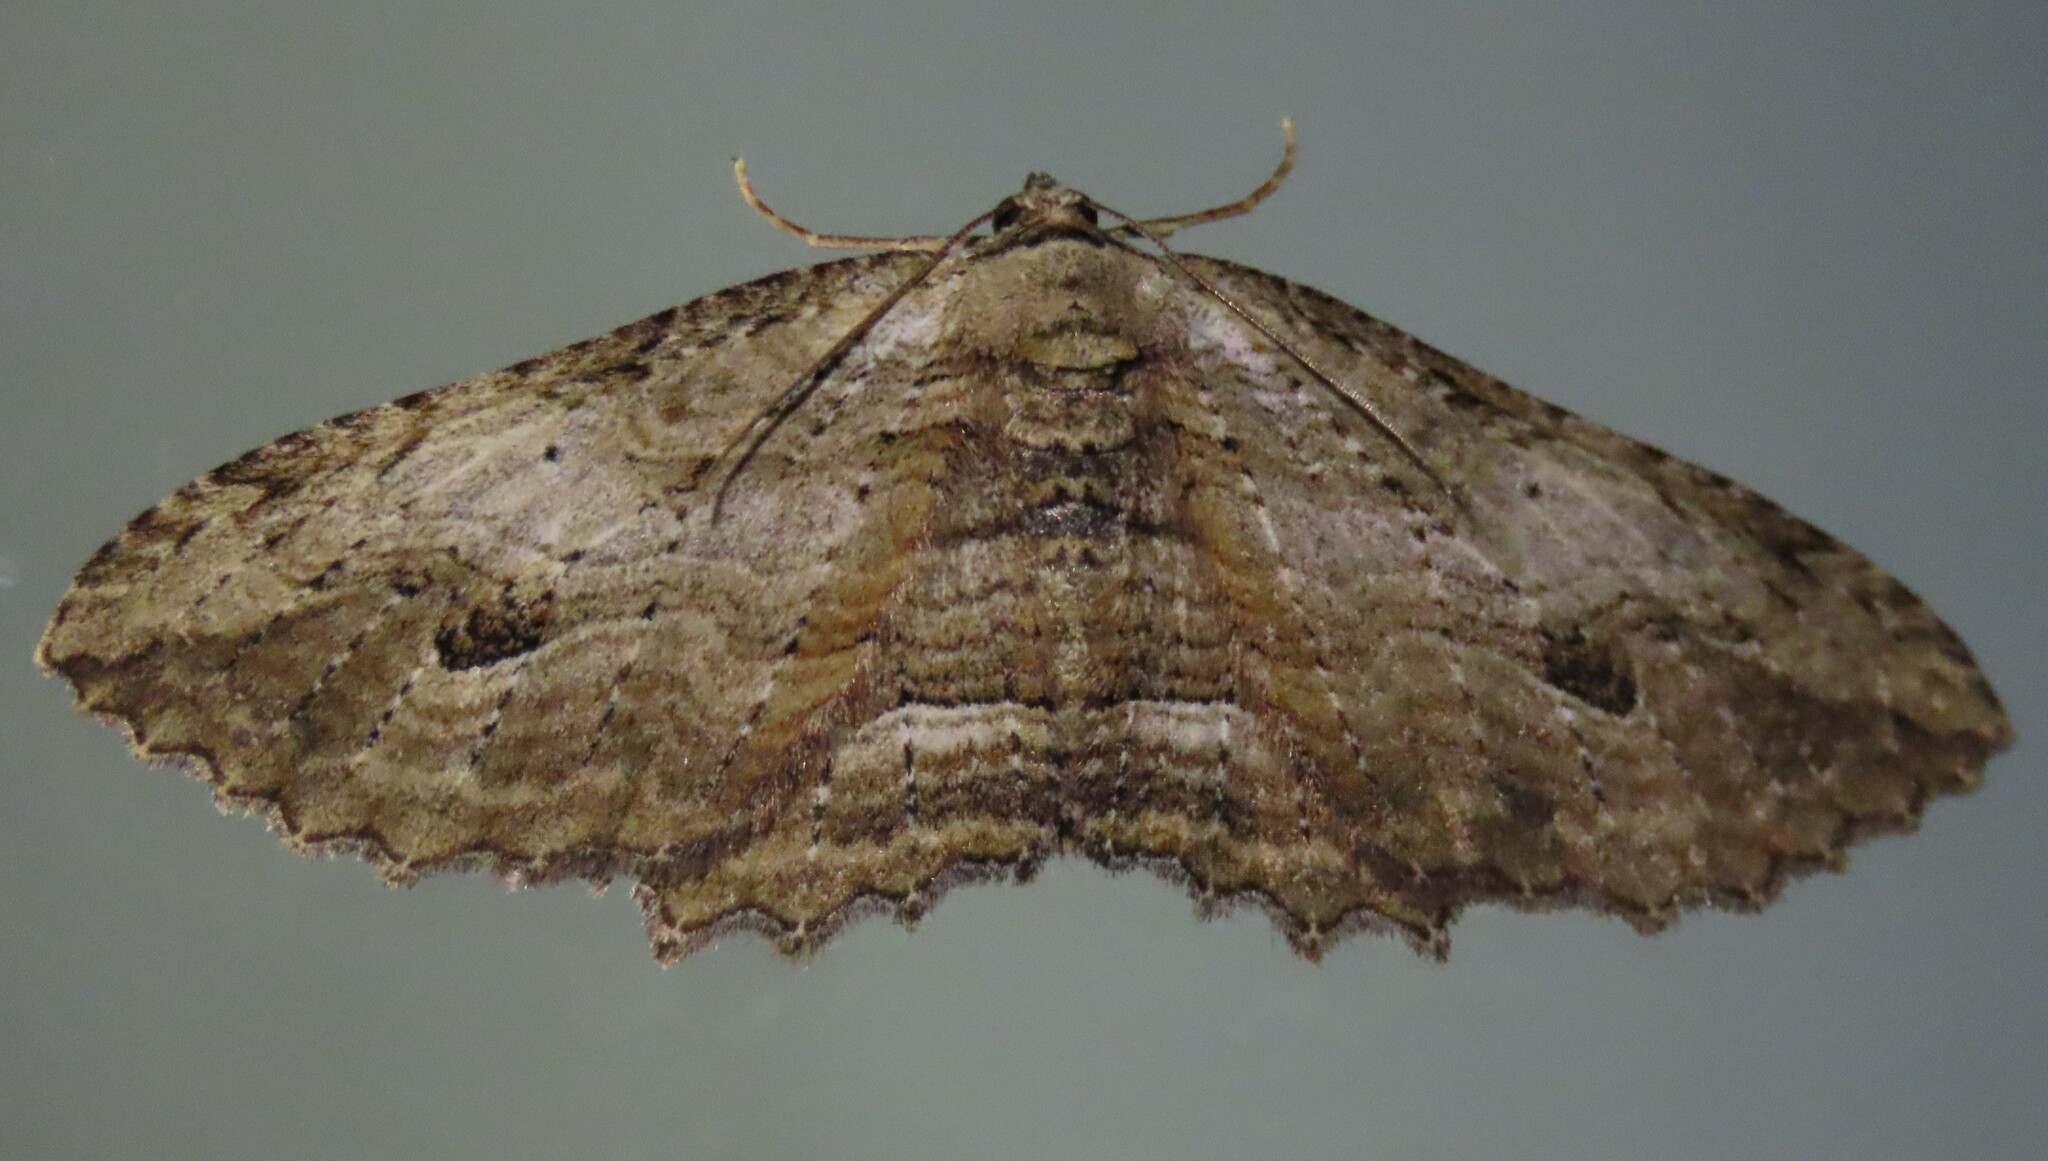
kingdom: Animalia
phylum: Arthropoda
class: Insecta
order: Lepidoptera
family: Geometridae
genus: Austrocidaria
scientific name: Austrocidaria bipartita
